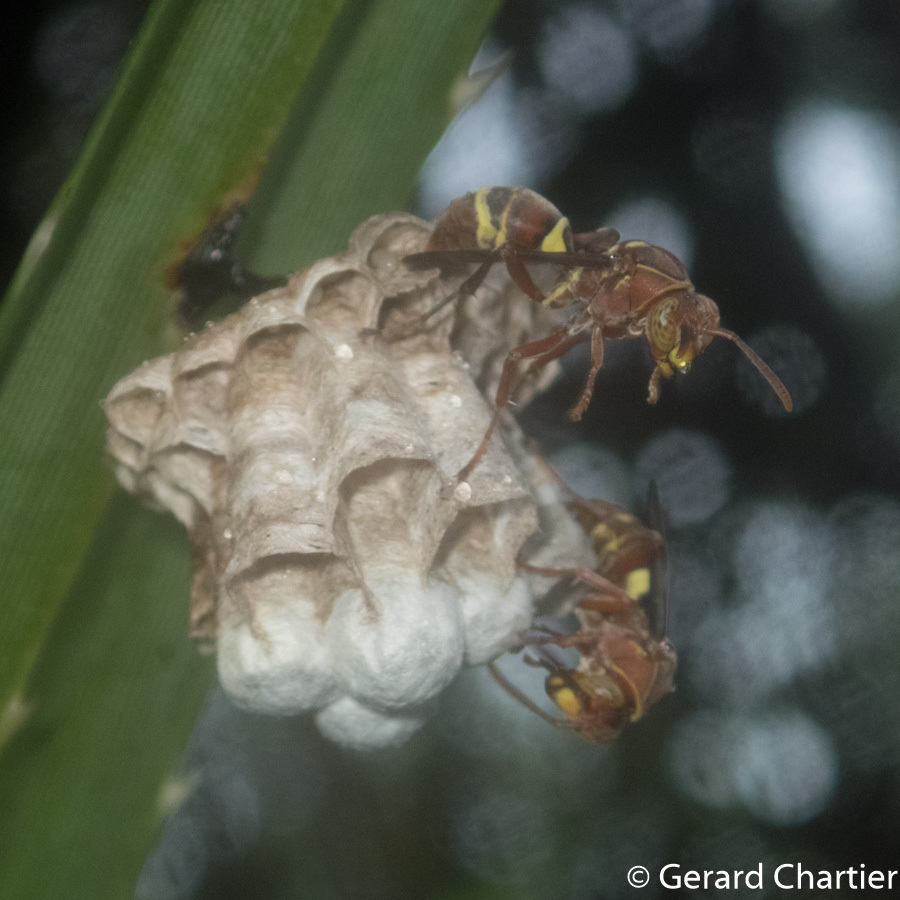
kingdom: Animalia
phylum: Arthropoda
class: Insecta
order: Hymenoptera
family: Eumenidae
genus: Polistes
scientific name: Polistes stigma
